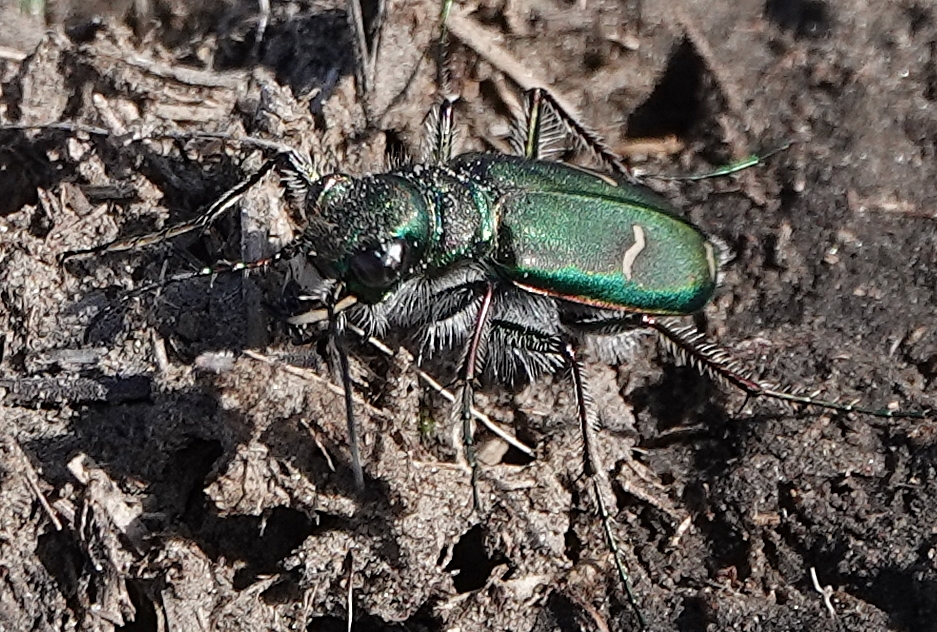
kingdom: Animalia
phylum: Arthropoda
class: Insecta
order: Coleoptera
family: Carabidae
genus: Cicindela
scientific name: Cicindela purpurea
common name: Cow path tiger beetle
